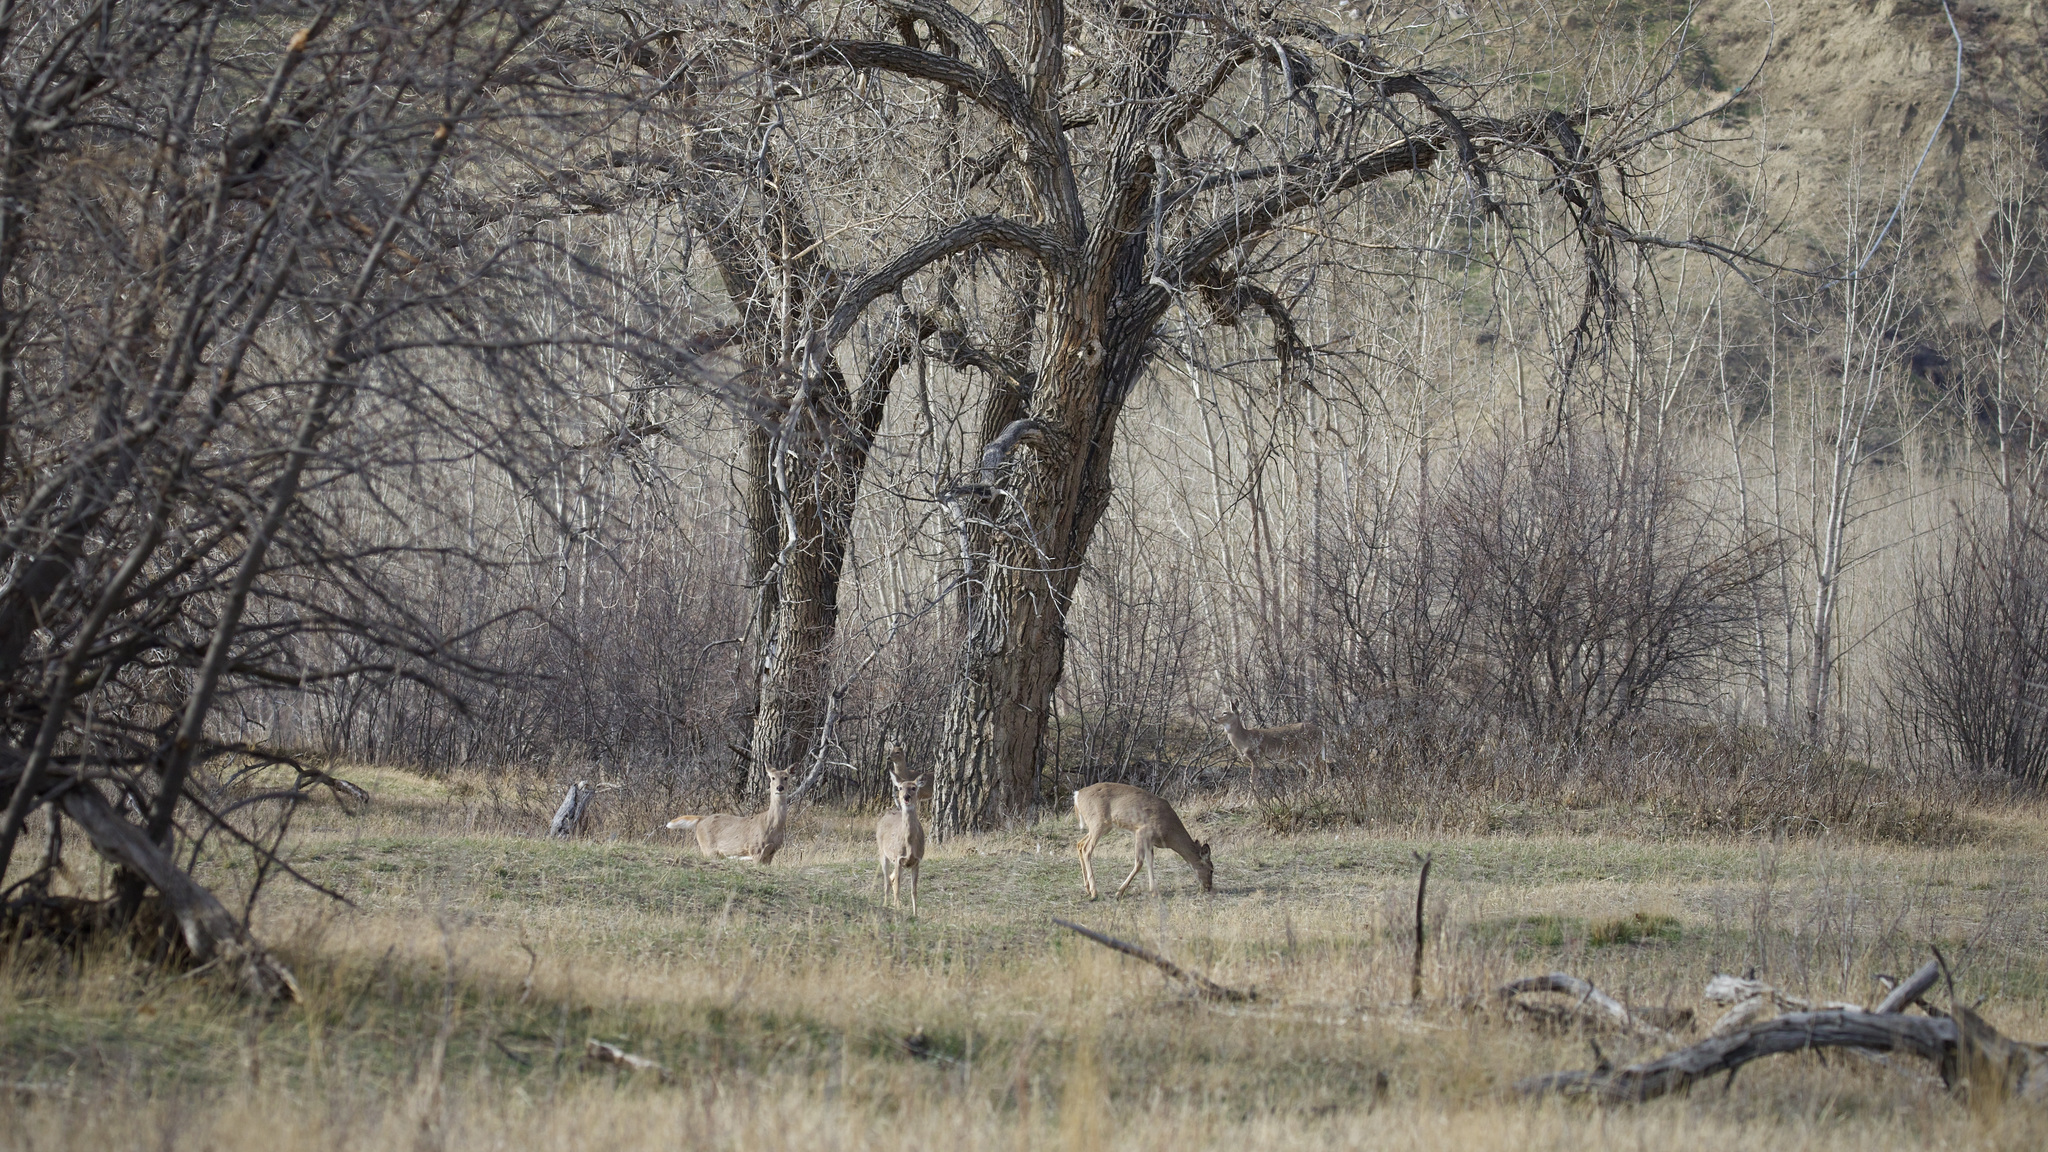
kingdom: Animalia
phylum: Chordata
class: Mammalia
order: Artiodactyla
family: Cervidae
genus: Odocoileus
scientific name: Odocoileus virginianus
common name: White-tailed deer
